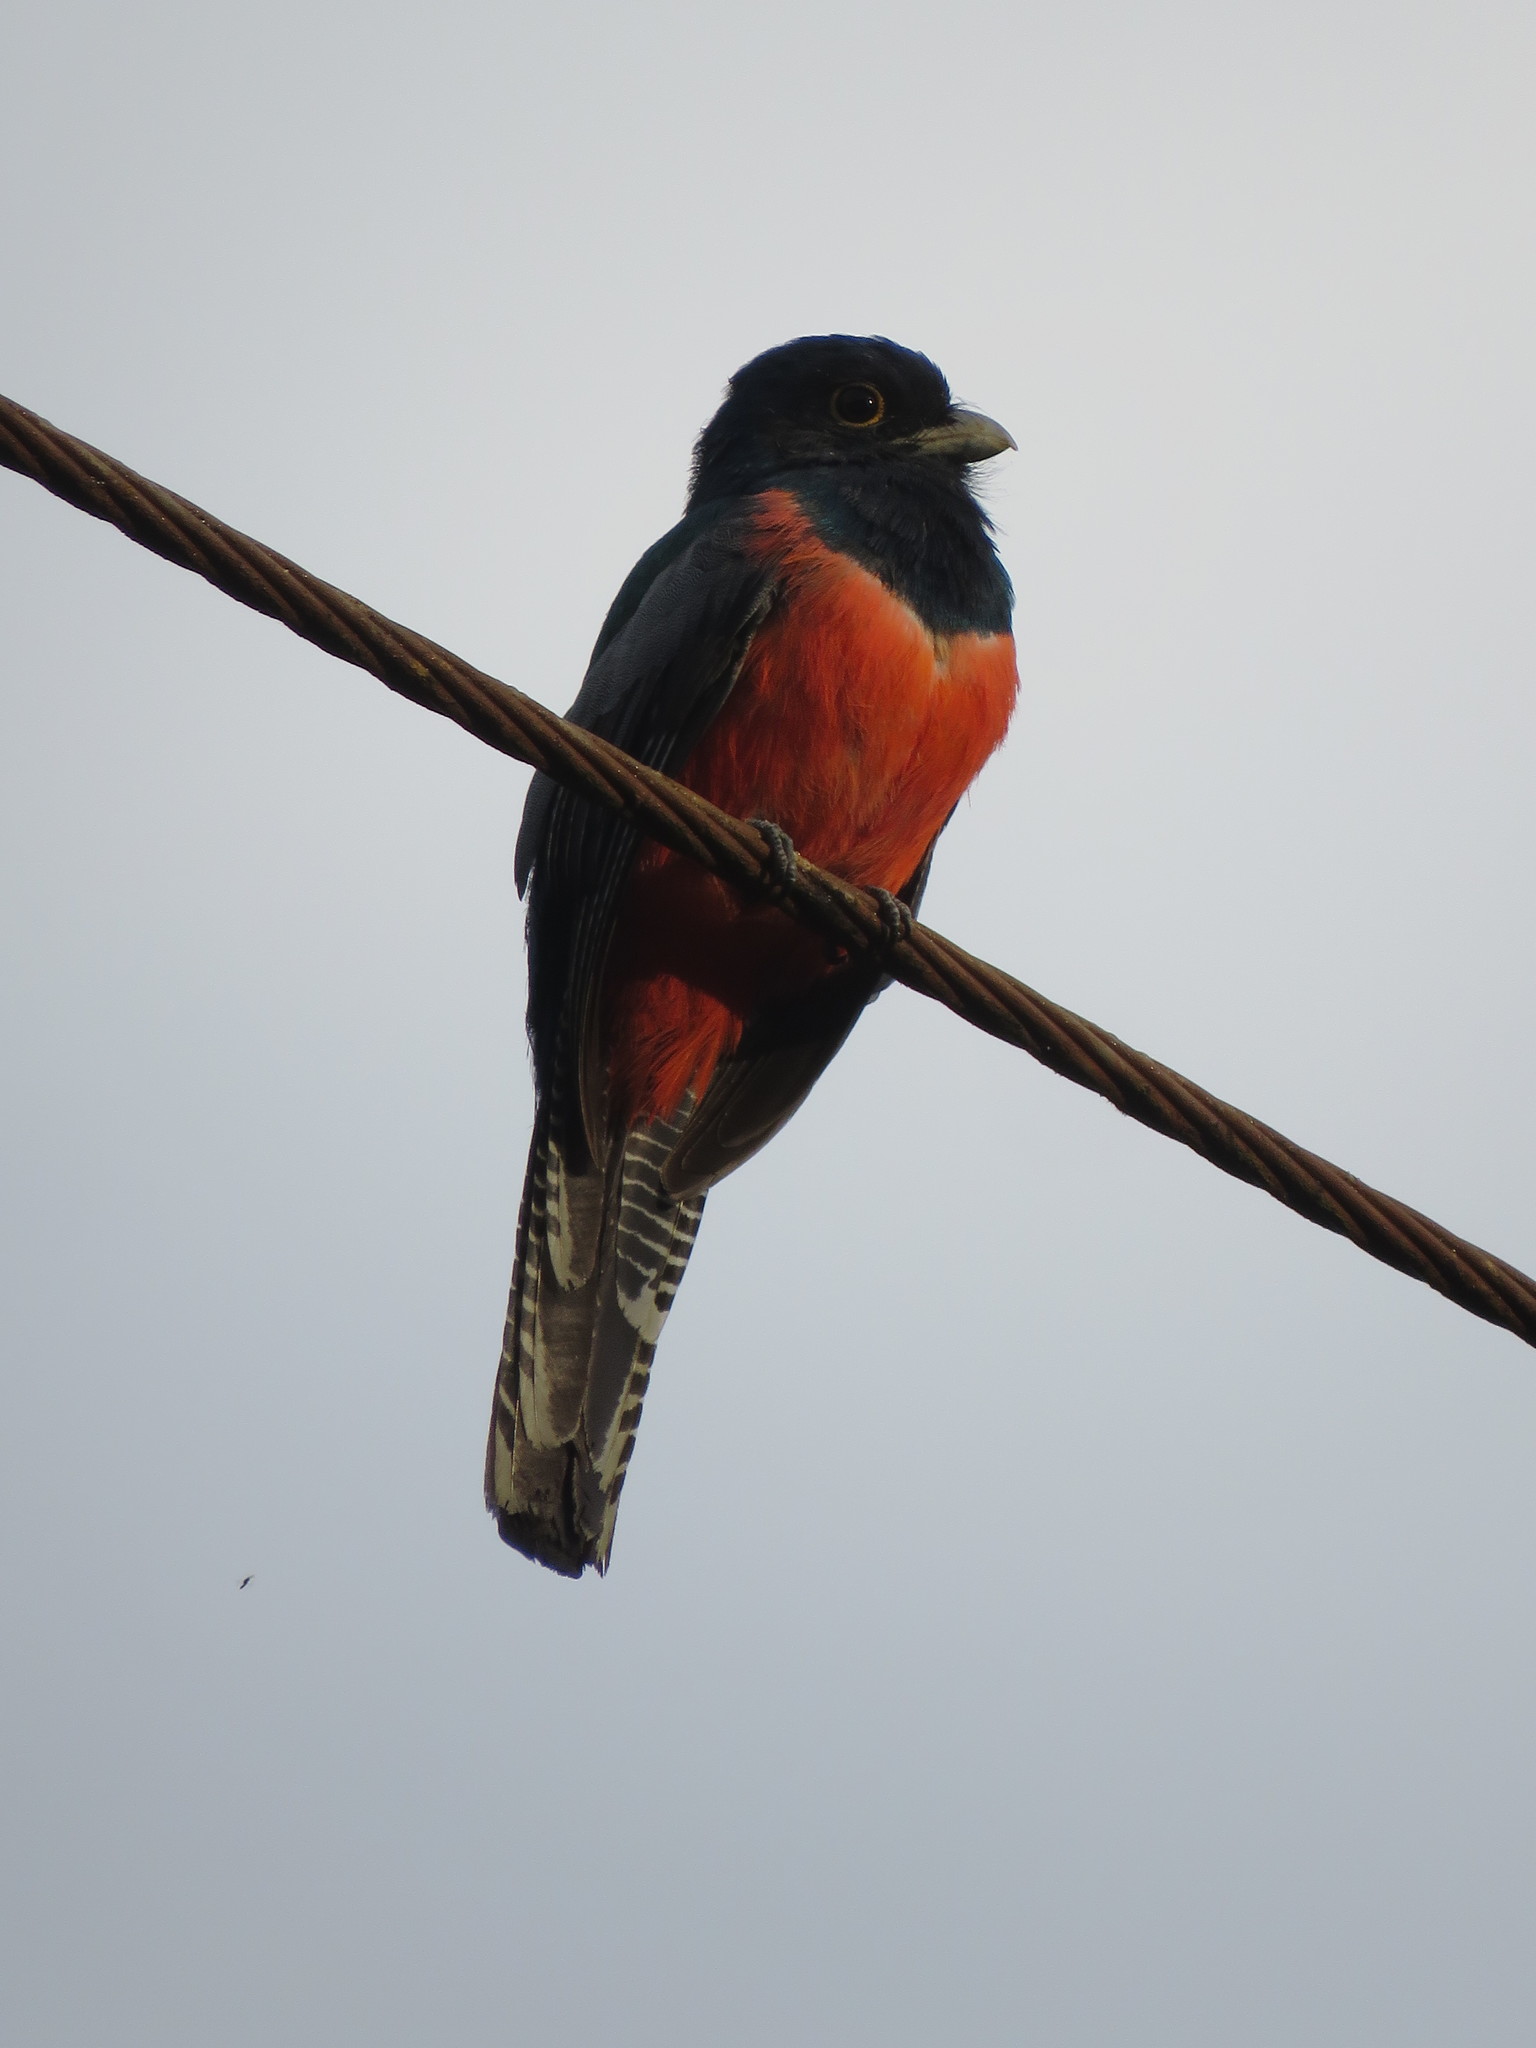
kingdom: Animalia
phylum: Chordata
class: Aves
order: Trogoniformes
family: Trogonidae
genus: Trogon
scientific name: Trogon curucui
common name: Blue-crowned trogon
